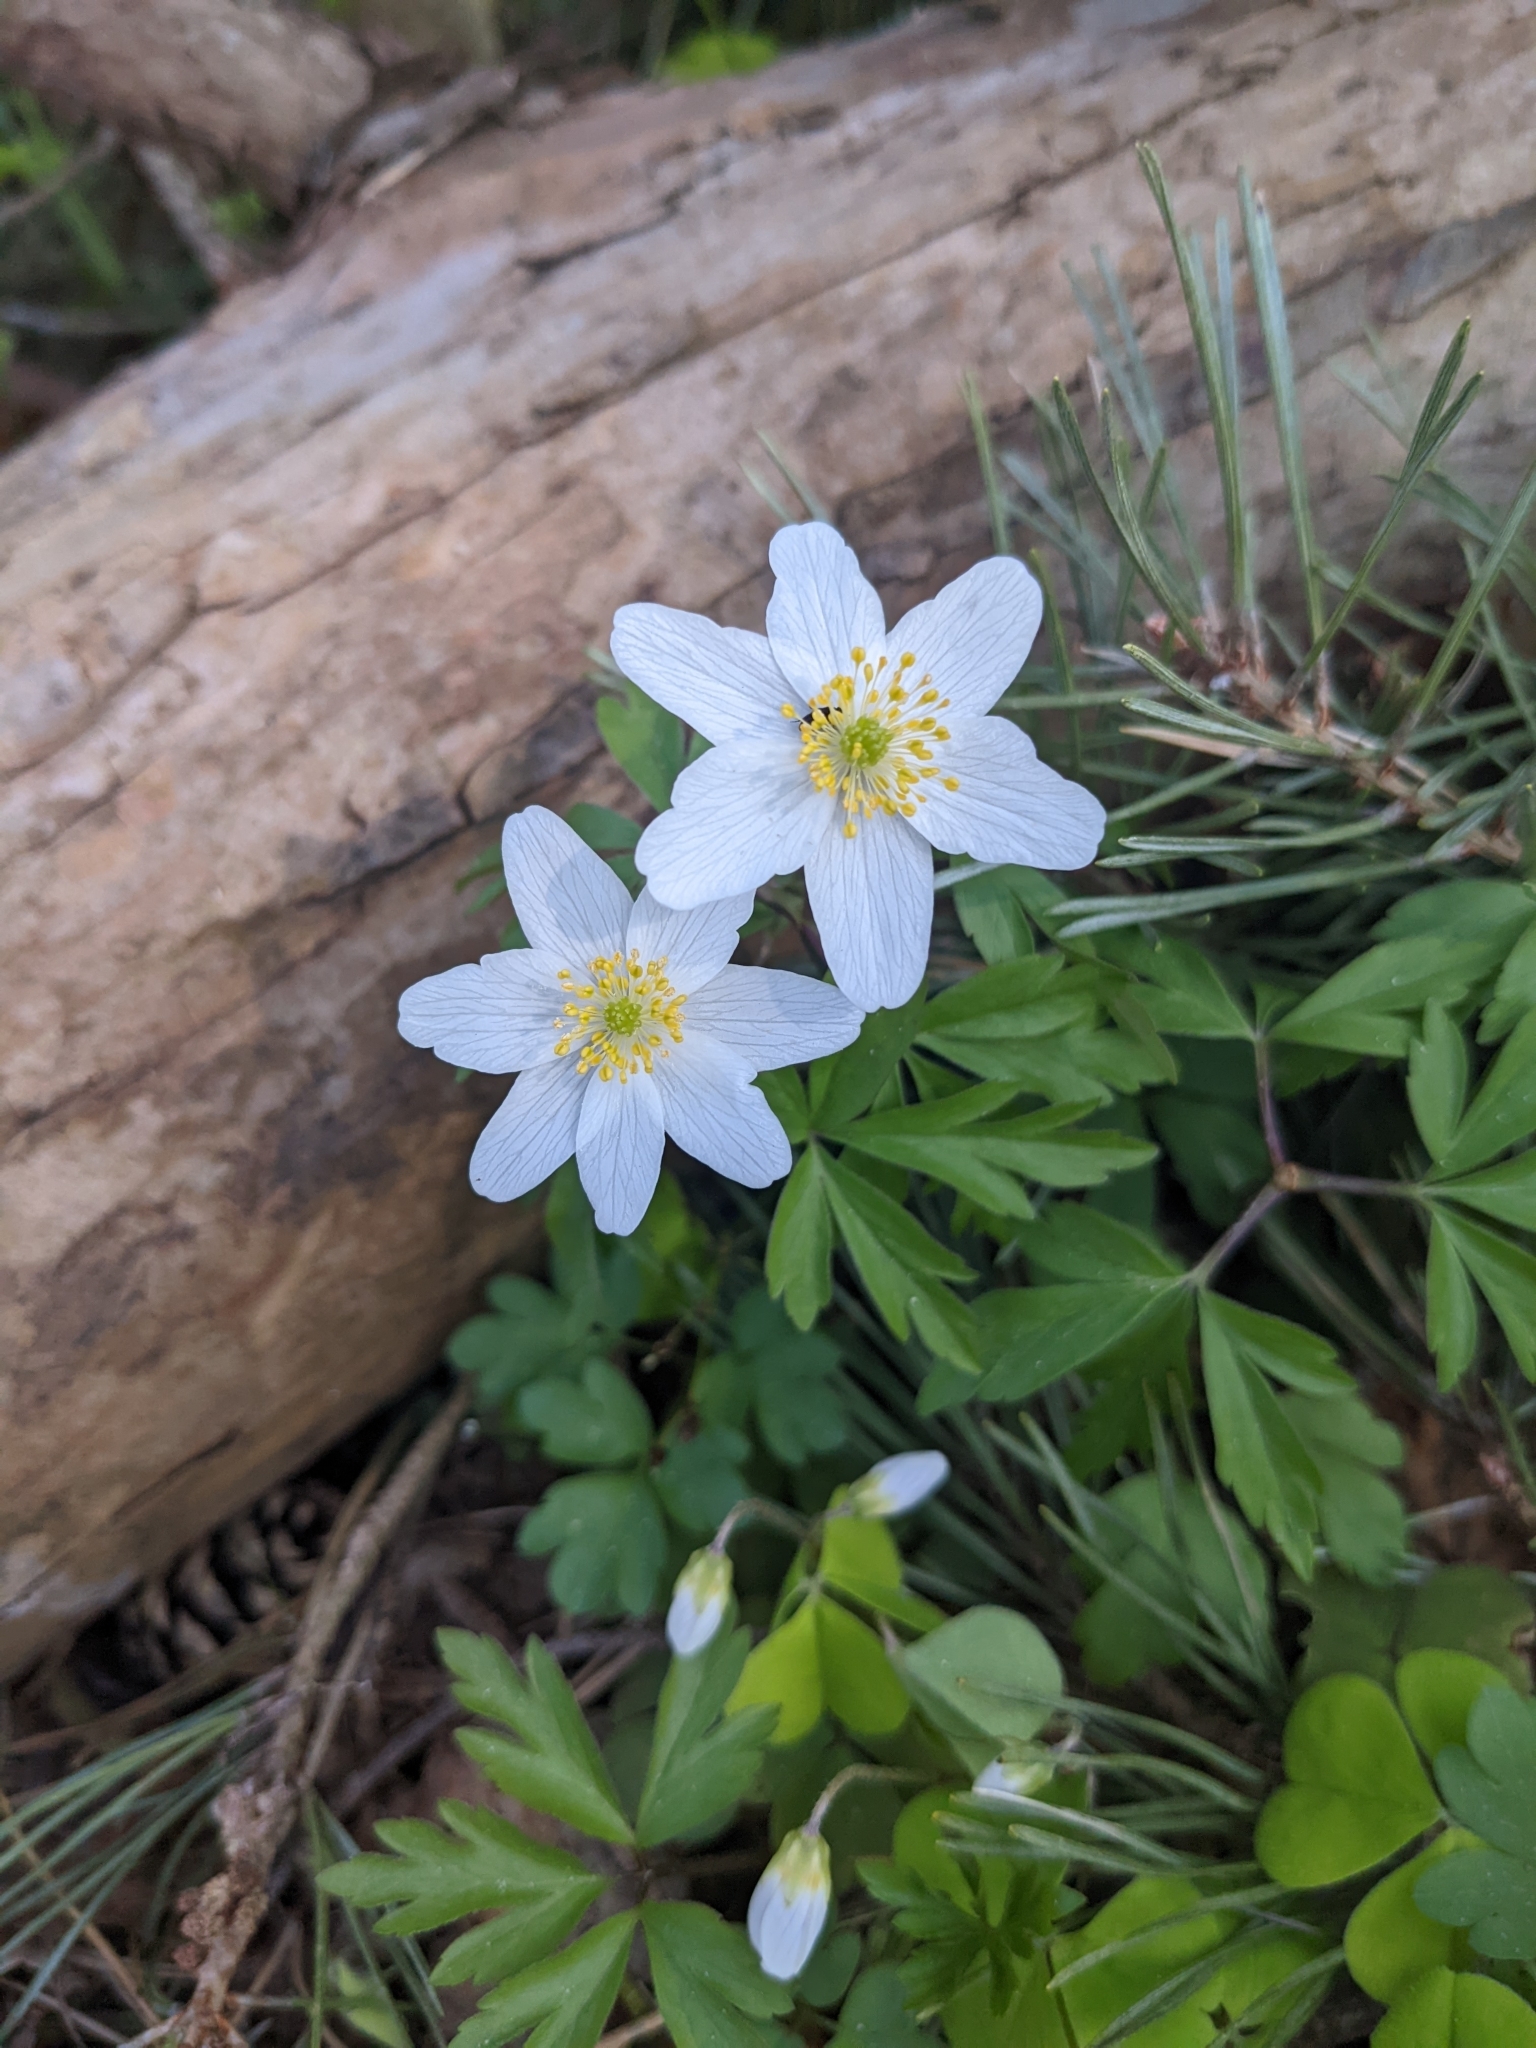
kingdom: Plantae
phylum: Tracheophyta
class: Magnoliopsida
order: Ranunculales
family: Ranunculaceae
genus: Anemone
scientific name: Anemone nemorosa
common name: Wood anemone
